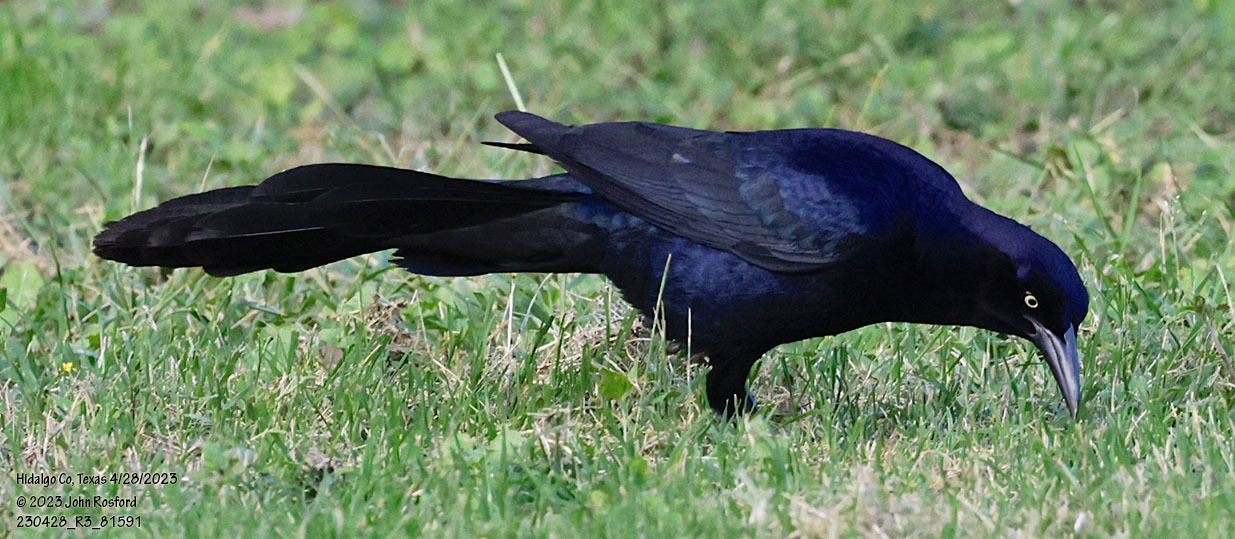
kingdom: Animalia
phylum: Chordata
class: Aves
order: Passeriformes
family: Icteridae
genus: Quiscalus
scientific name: Quiscalus mexicanus
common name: Great-tailed grackle
